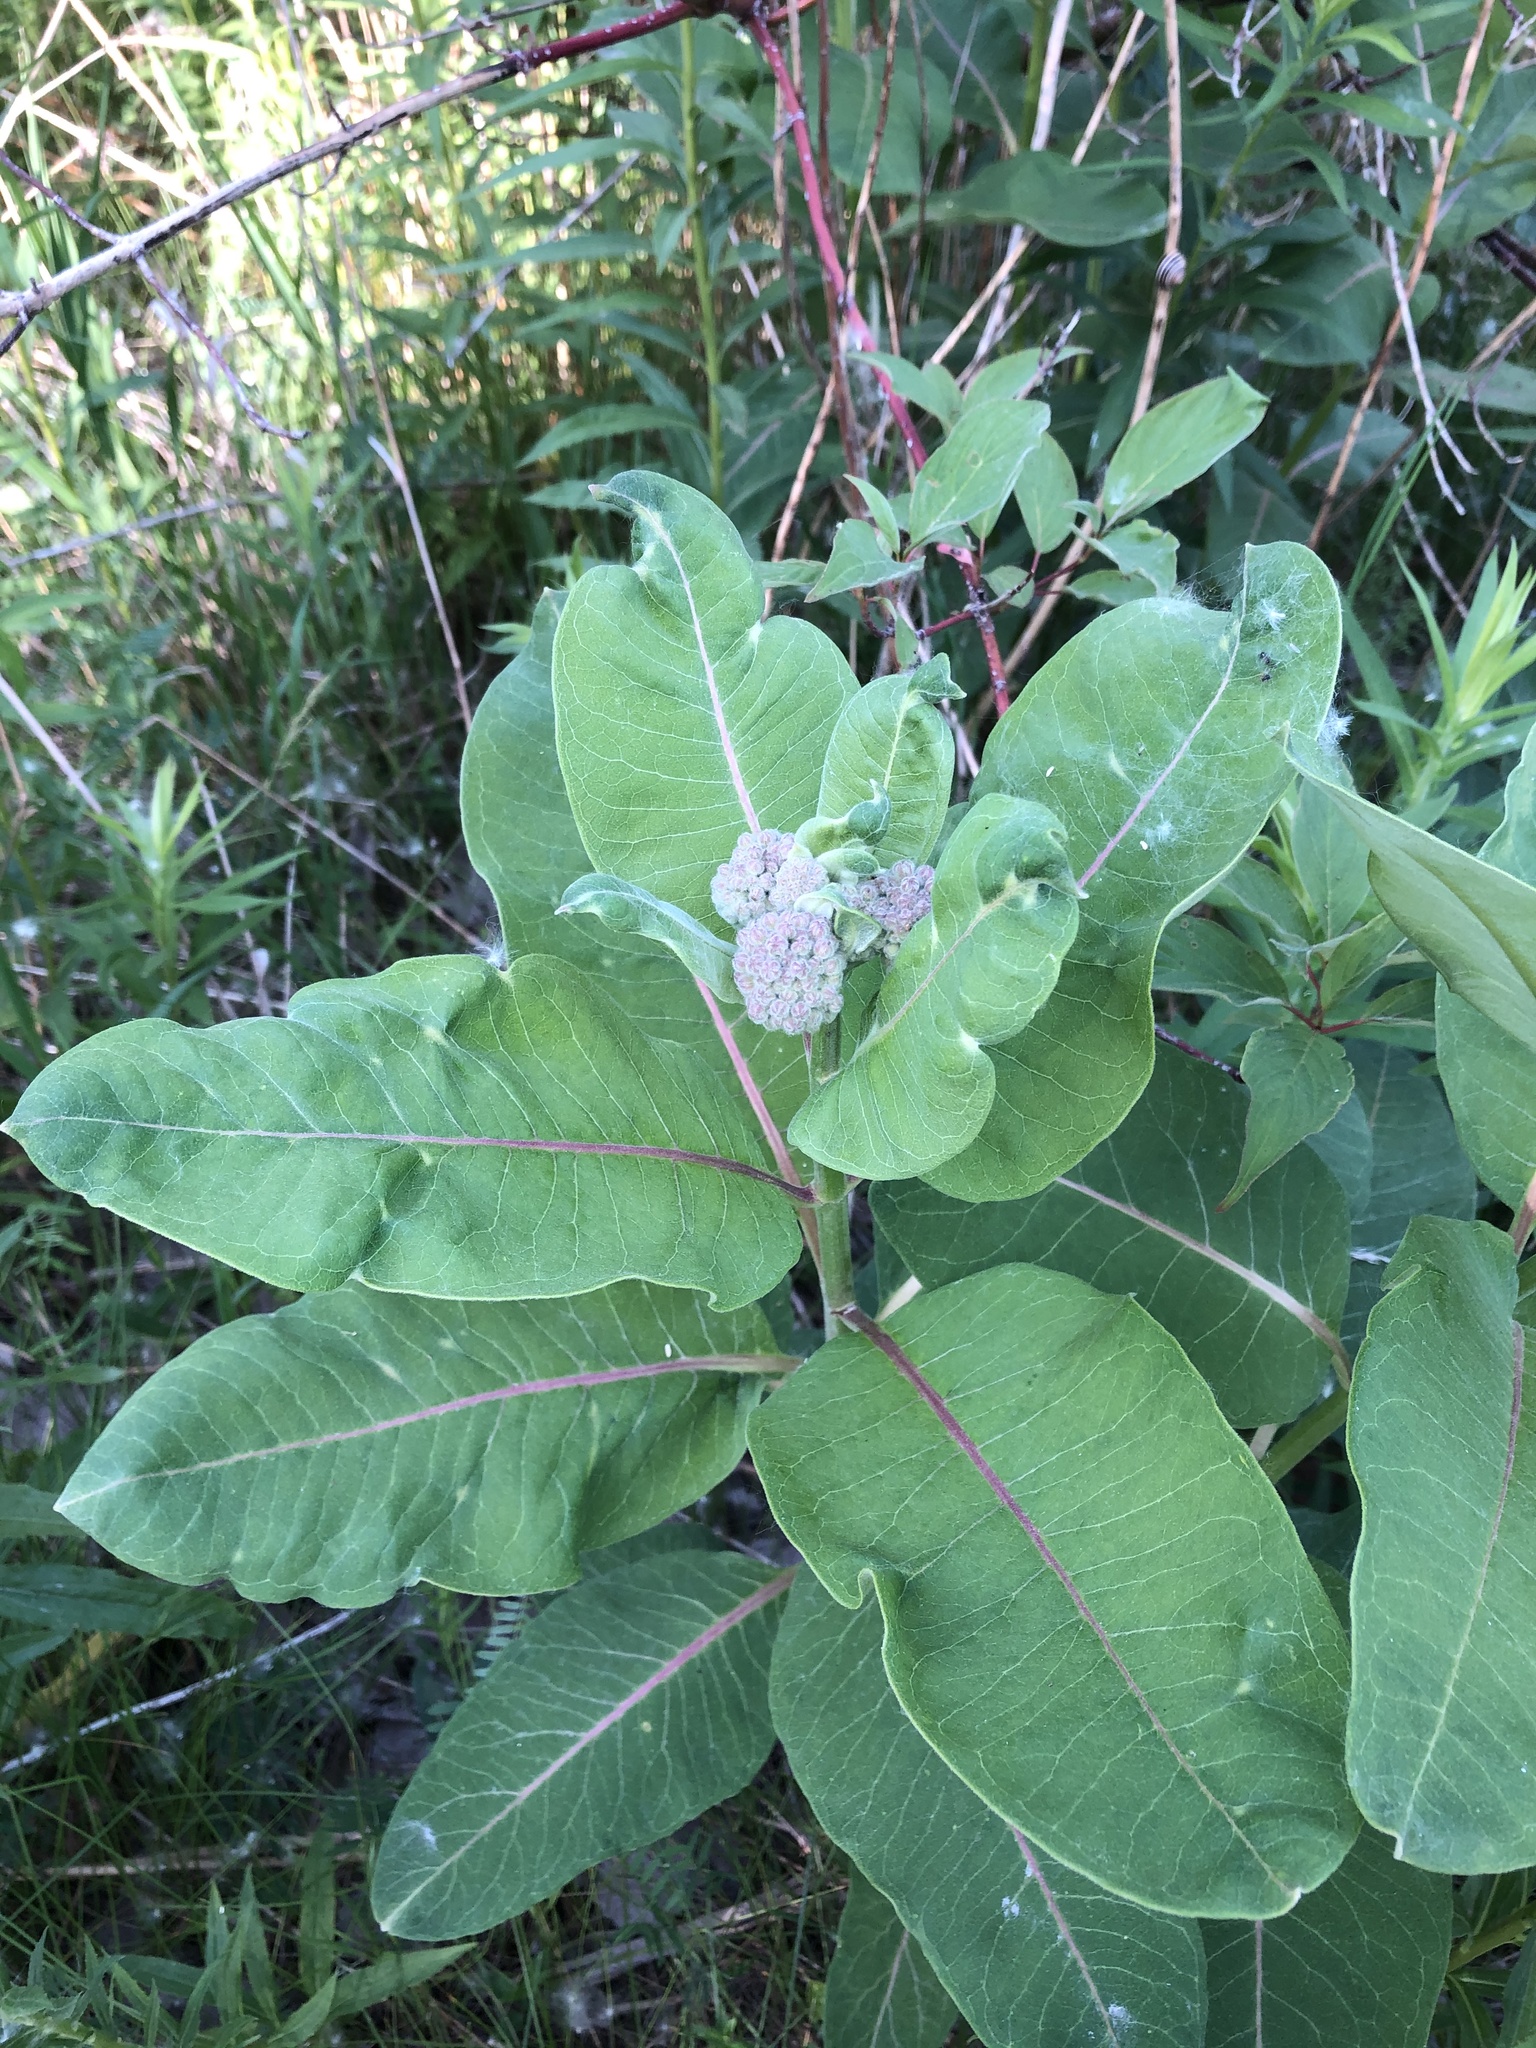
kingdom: Plantae
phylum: Tracheophyta
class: Magnoliopsida
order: Gentianales
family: Apocynaceae
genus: Asclepias
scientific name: Asclepias syriaca
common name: Common milkweed
